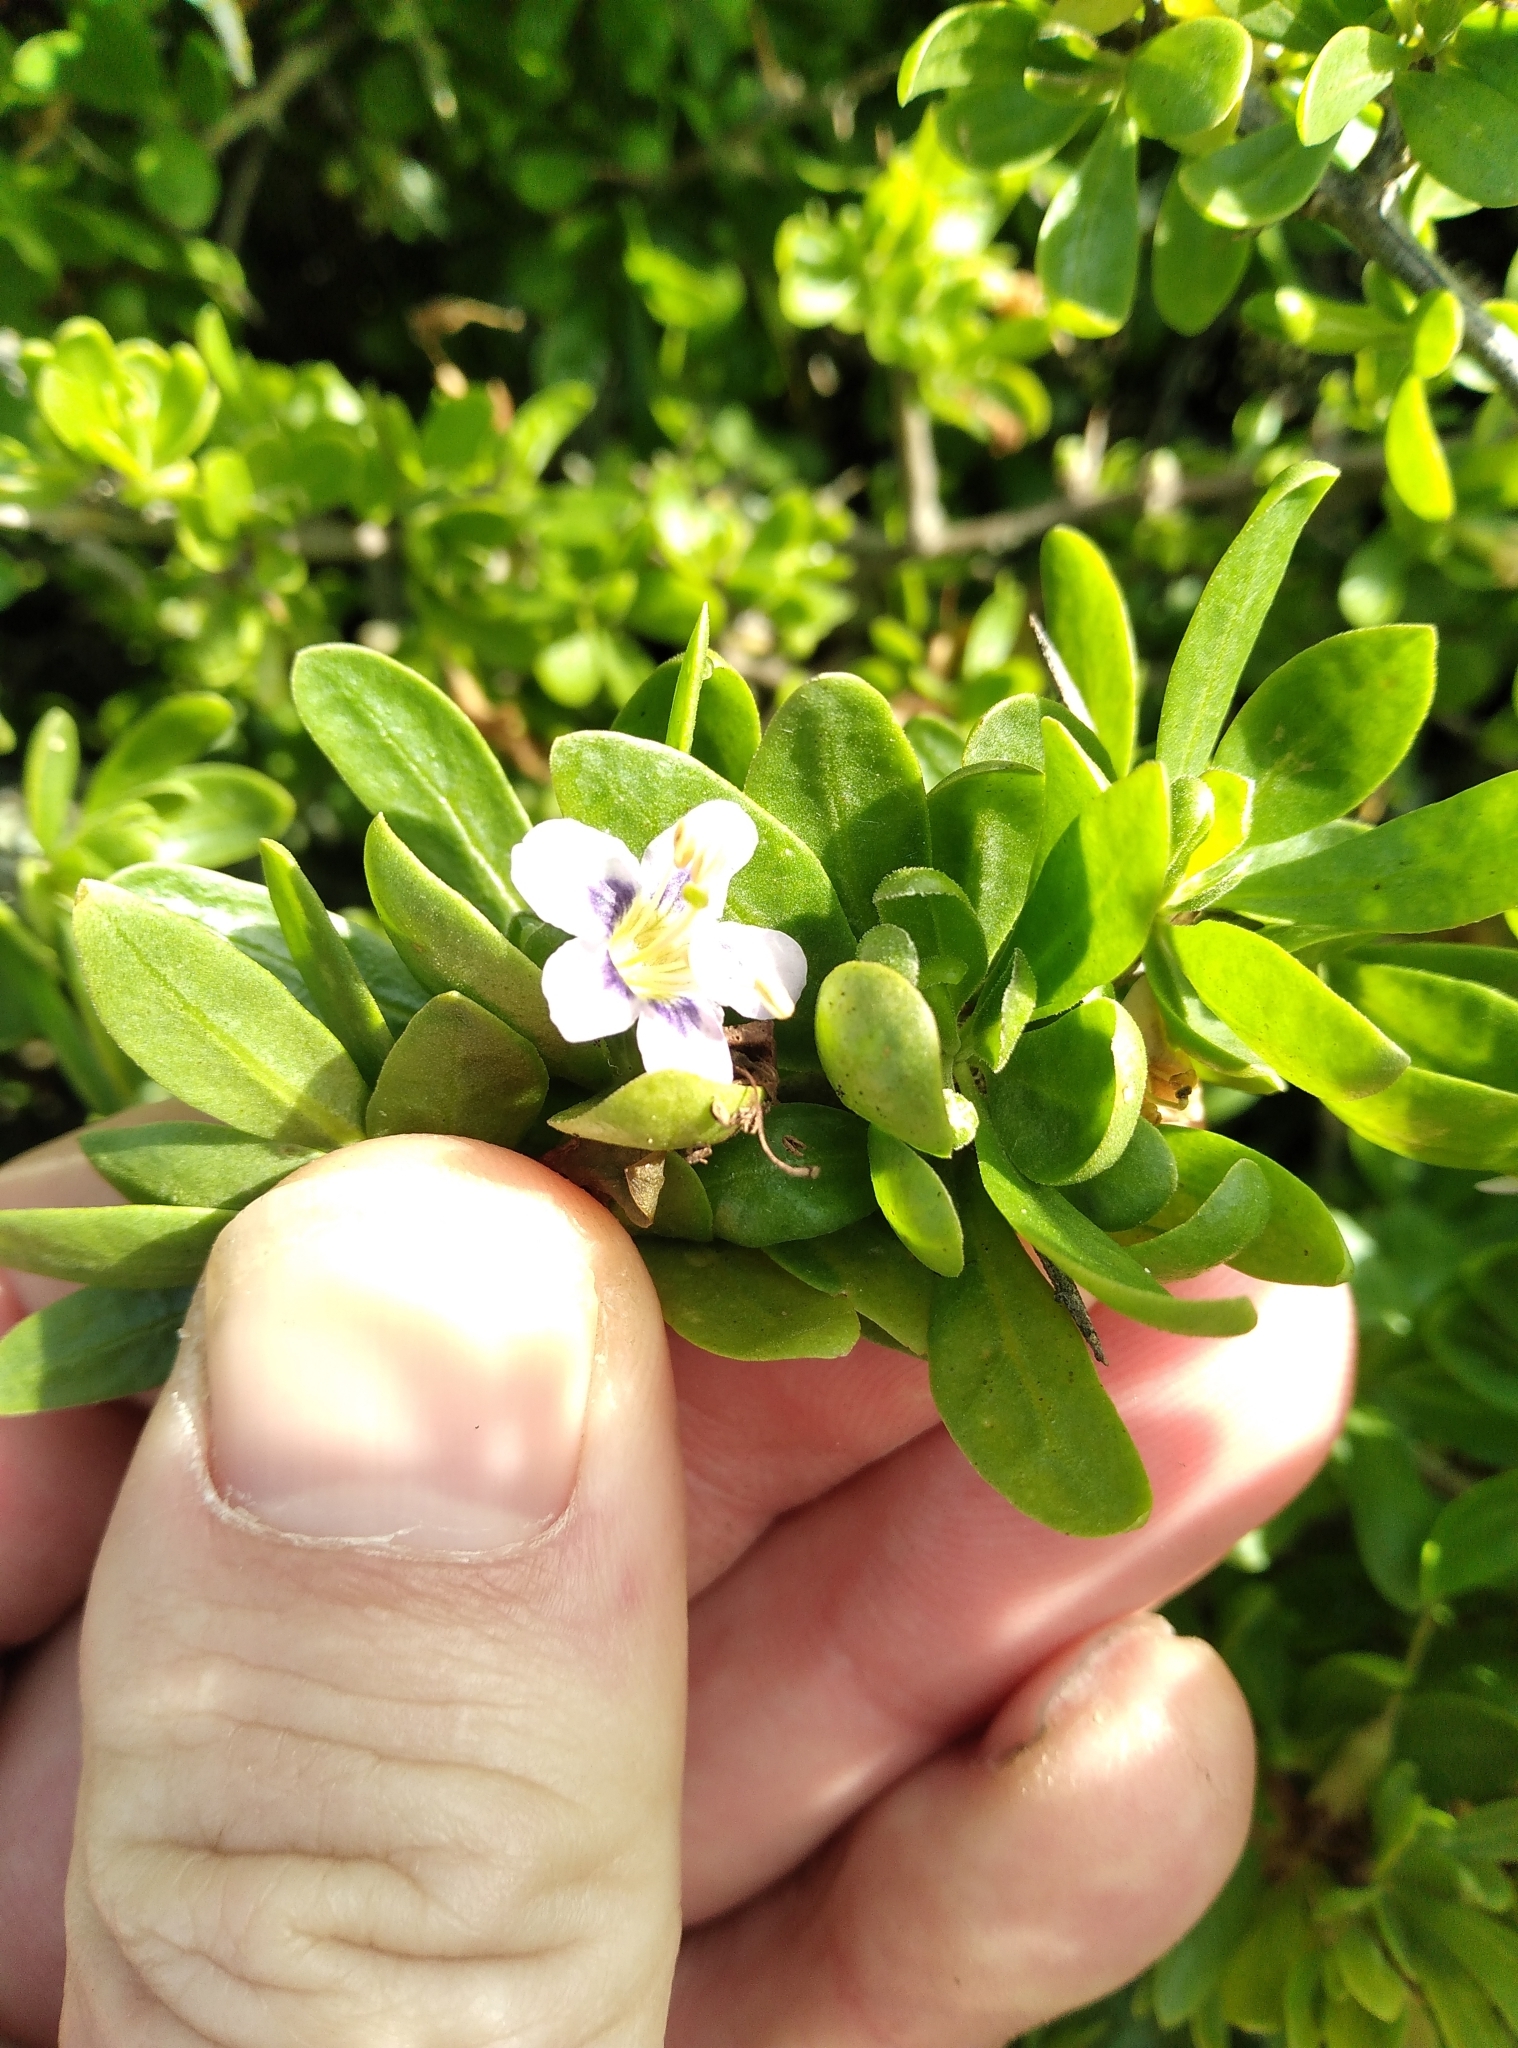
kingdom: Plantae
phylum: Tracheophyta
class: Magnoliopsida
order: Solanales
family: Solanaceae
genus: Lycium
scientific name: Lycium ferocissimum
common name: African boxthorn
